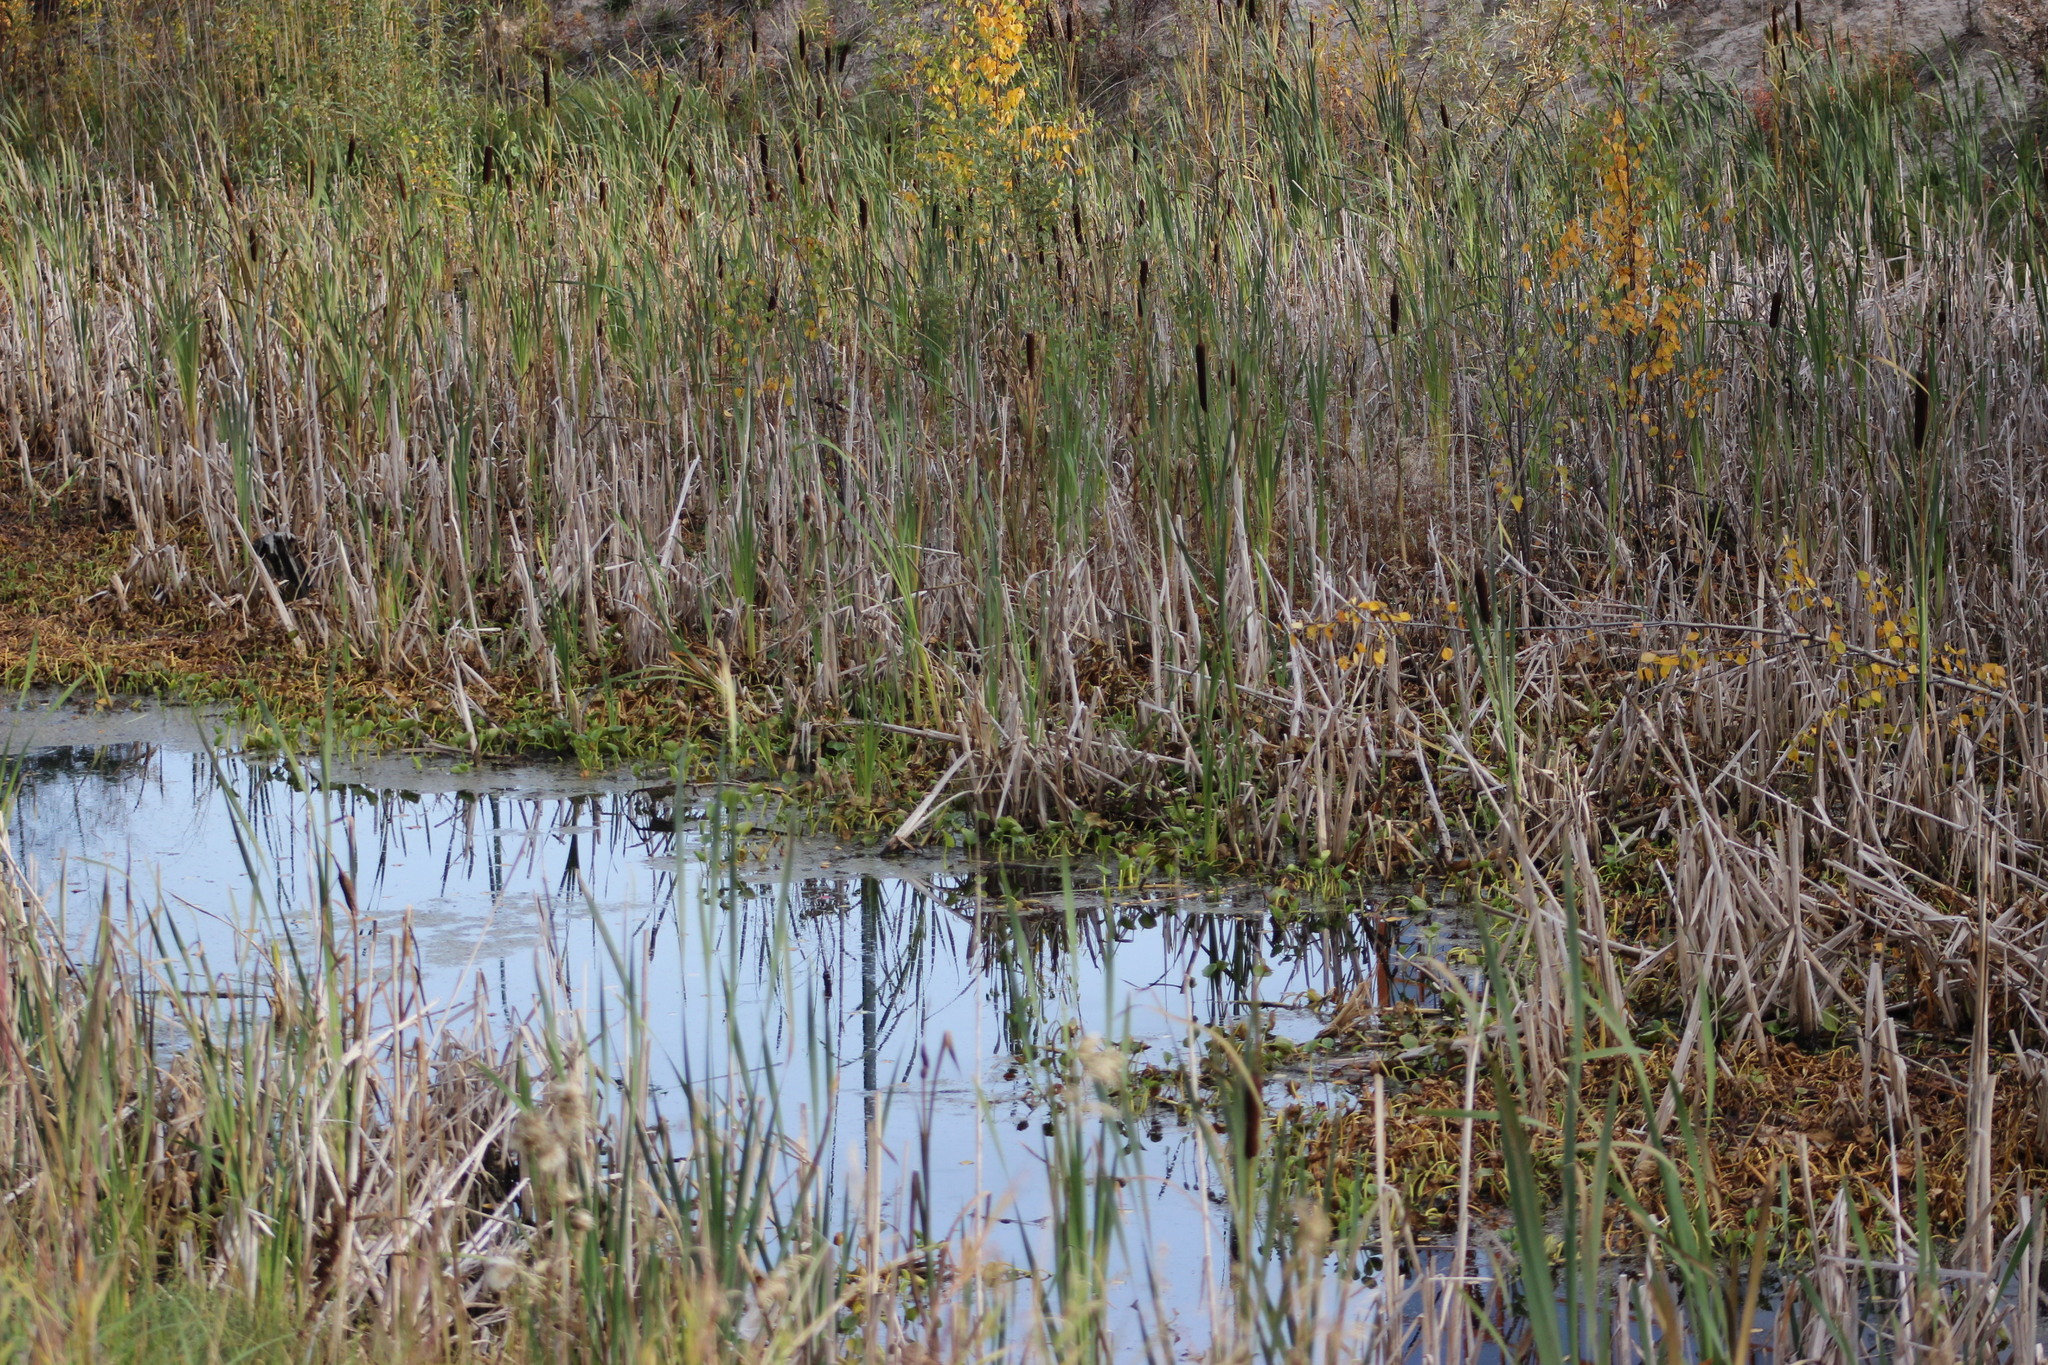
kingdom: Plantae
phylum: Tracheophyta
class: Liliopsida
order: Poales
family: Typhaceae
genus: Typha
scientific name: Typha latifolia
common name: Broadleaf cattail
